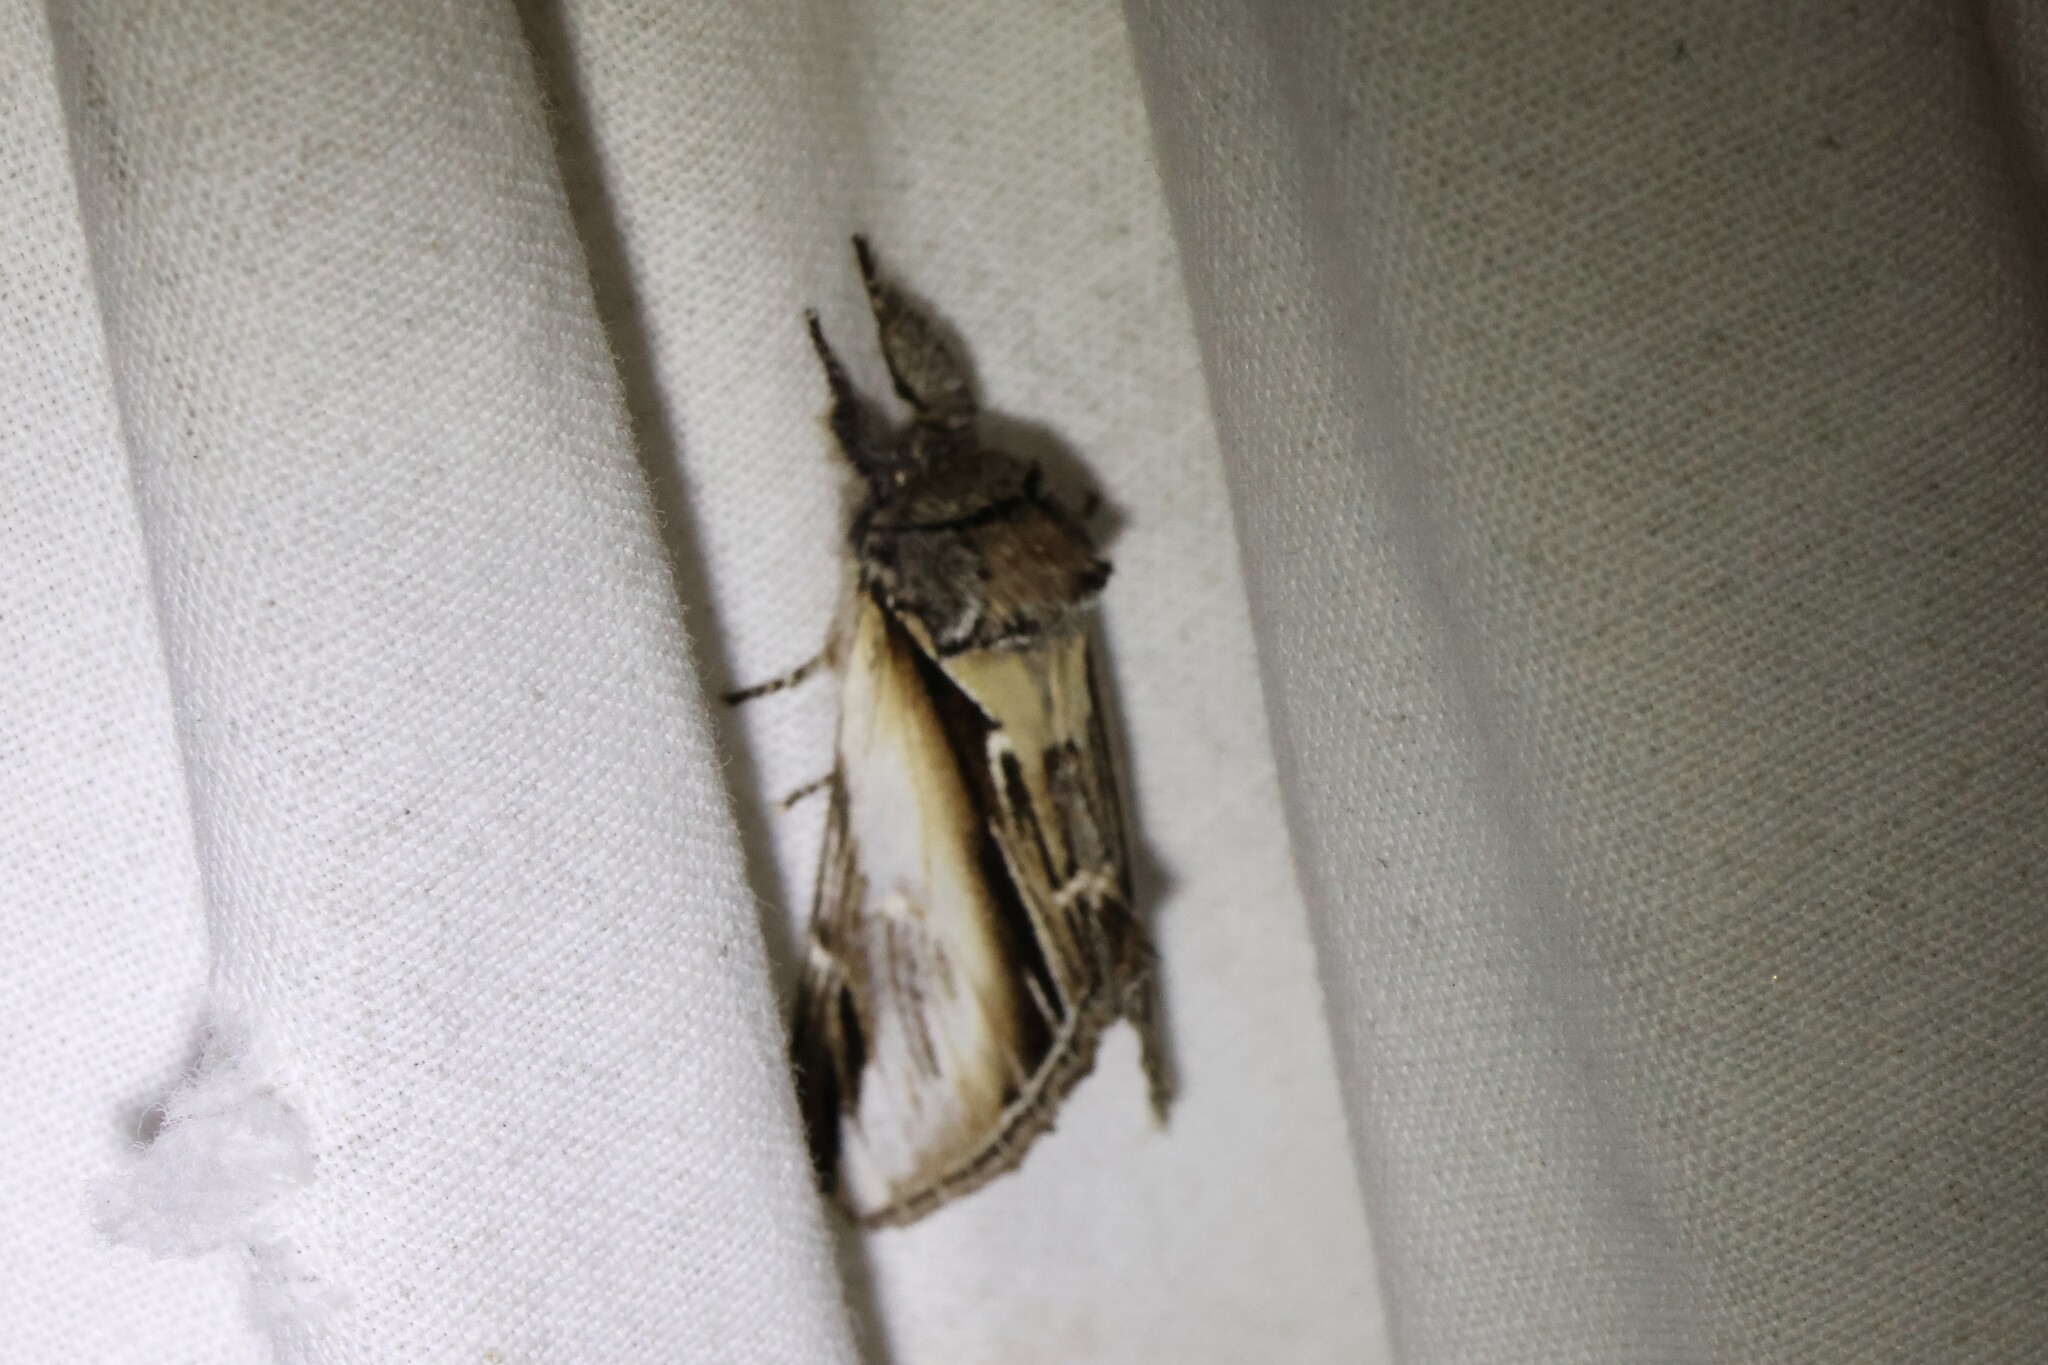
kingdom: Animalia
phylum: Arthropoda
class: Insecta
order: Lepidoptera
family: Notodontidae
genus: Pheosia
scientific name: Pheosia rimosa
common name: Black-rimmed prominent
